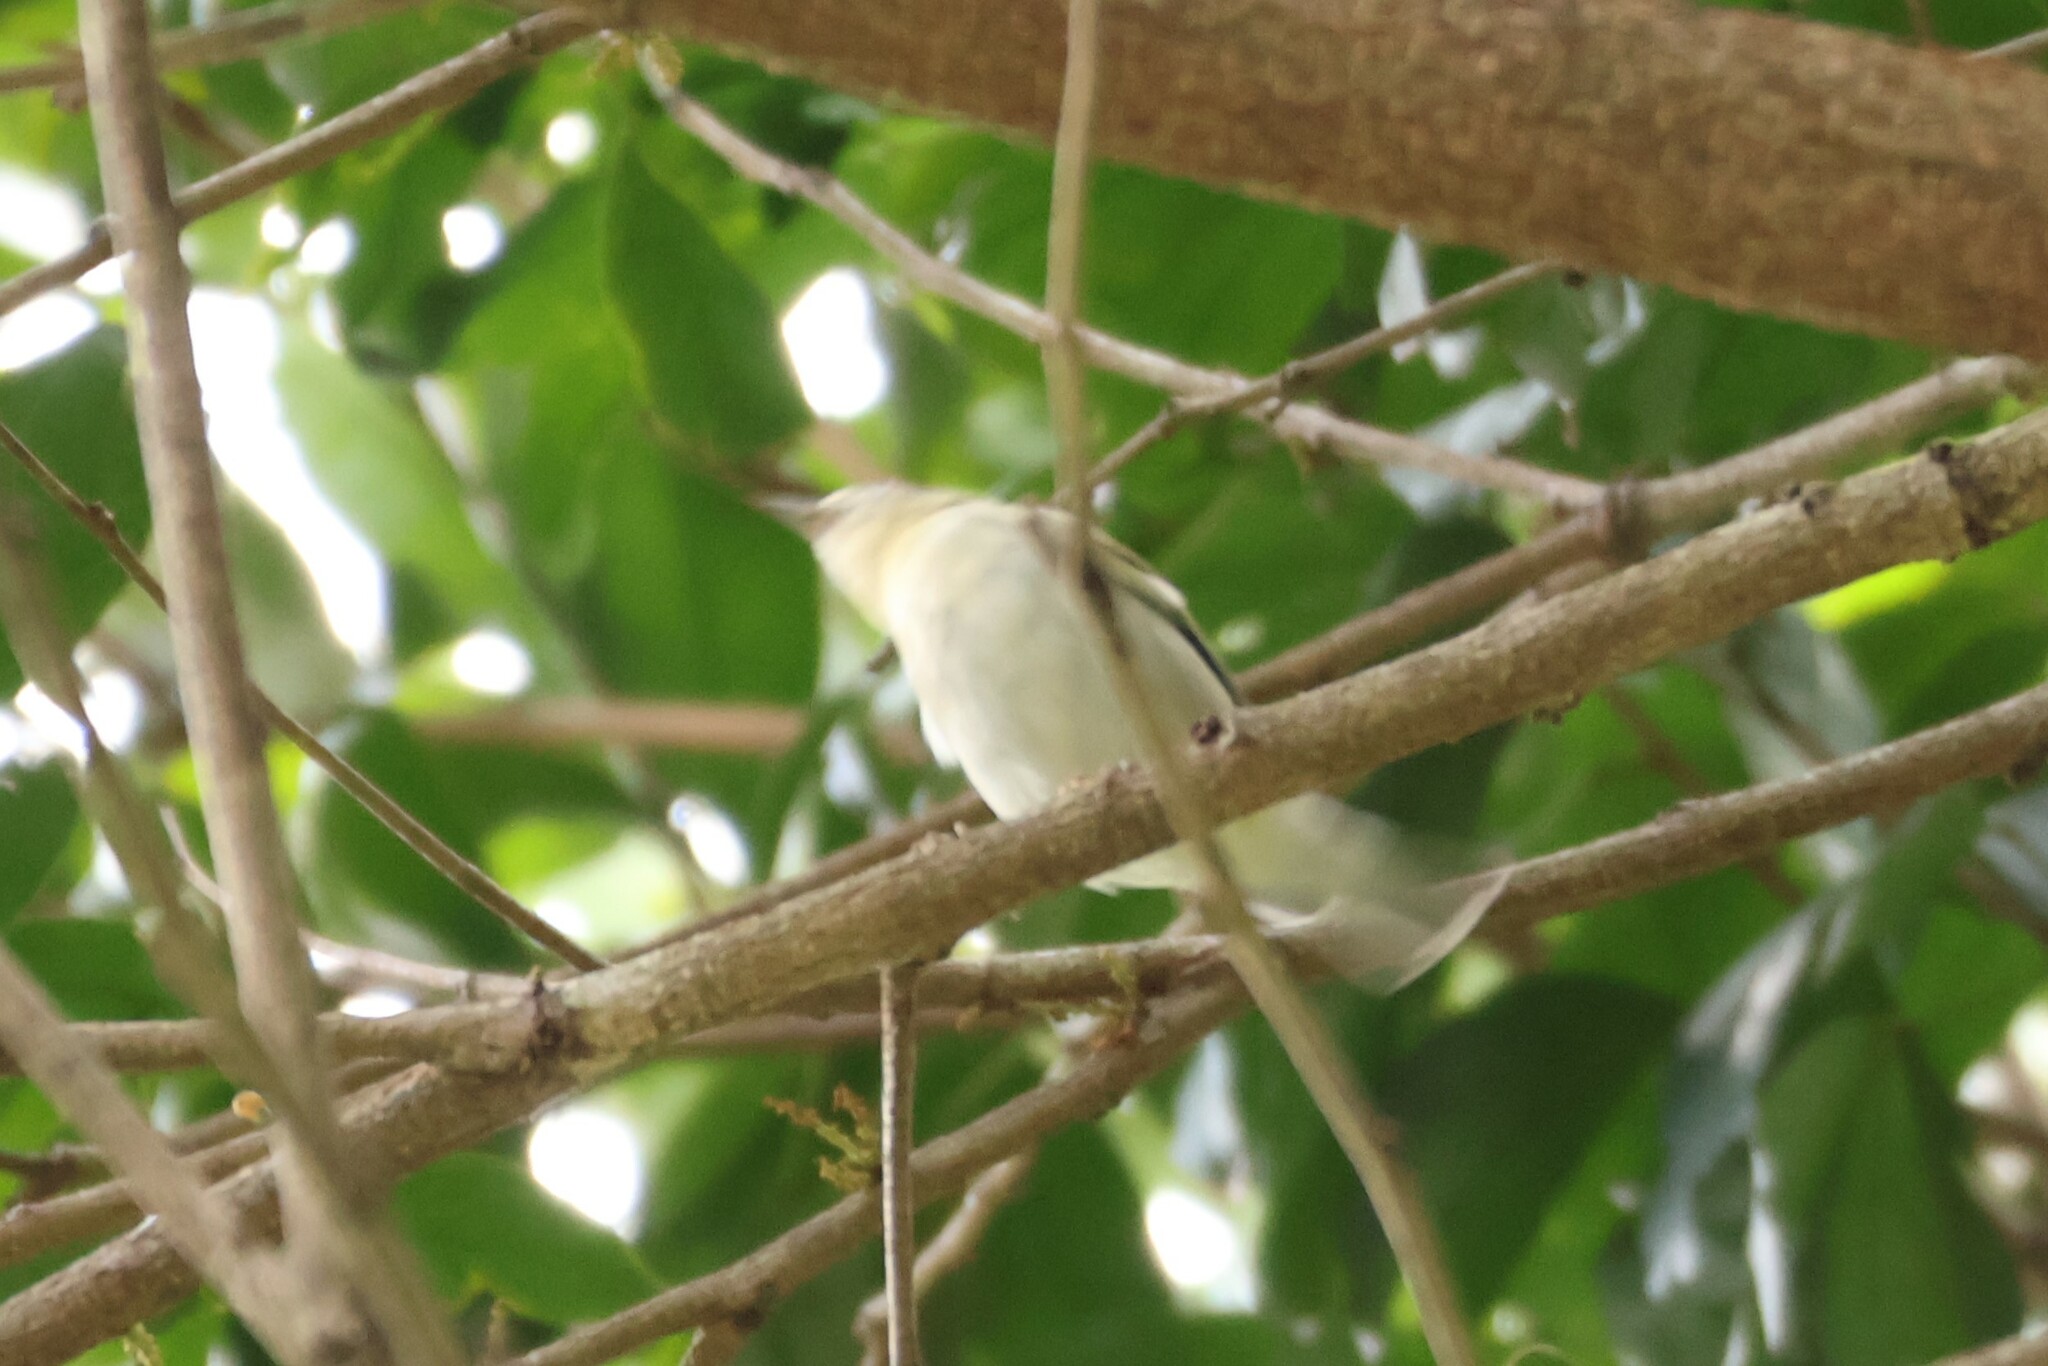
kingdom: Animalia
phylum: Chordata
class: Aves
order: Passeriformes
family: Parulidae
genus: Setophaga
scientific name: Setophaga pensylvanica
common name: Chestnut-sided warbler
